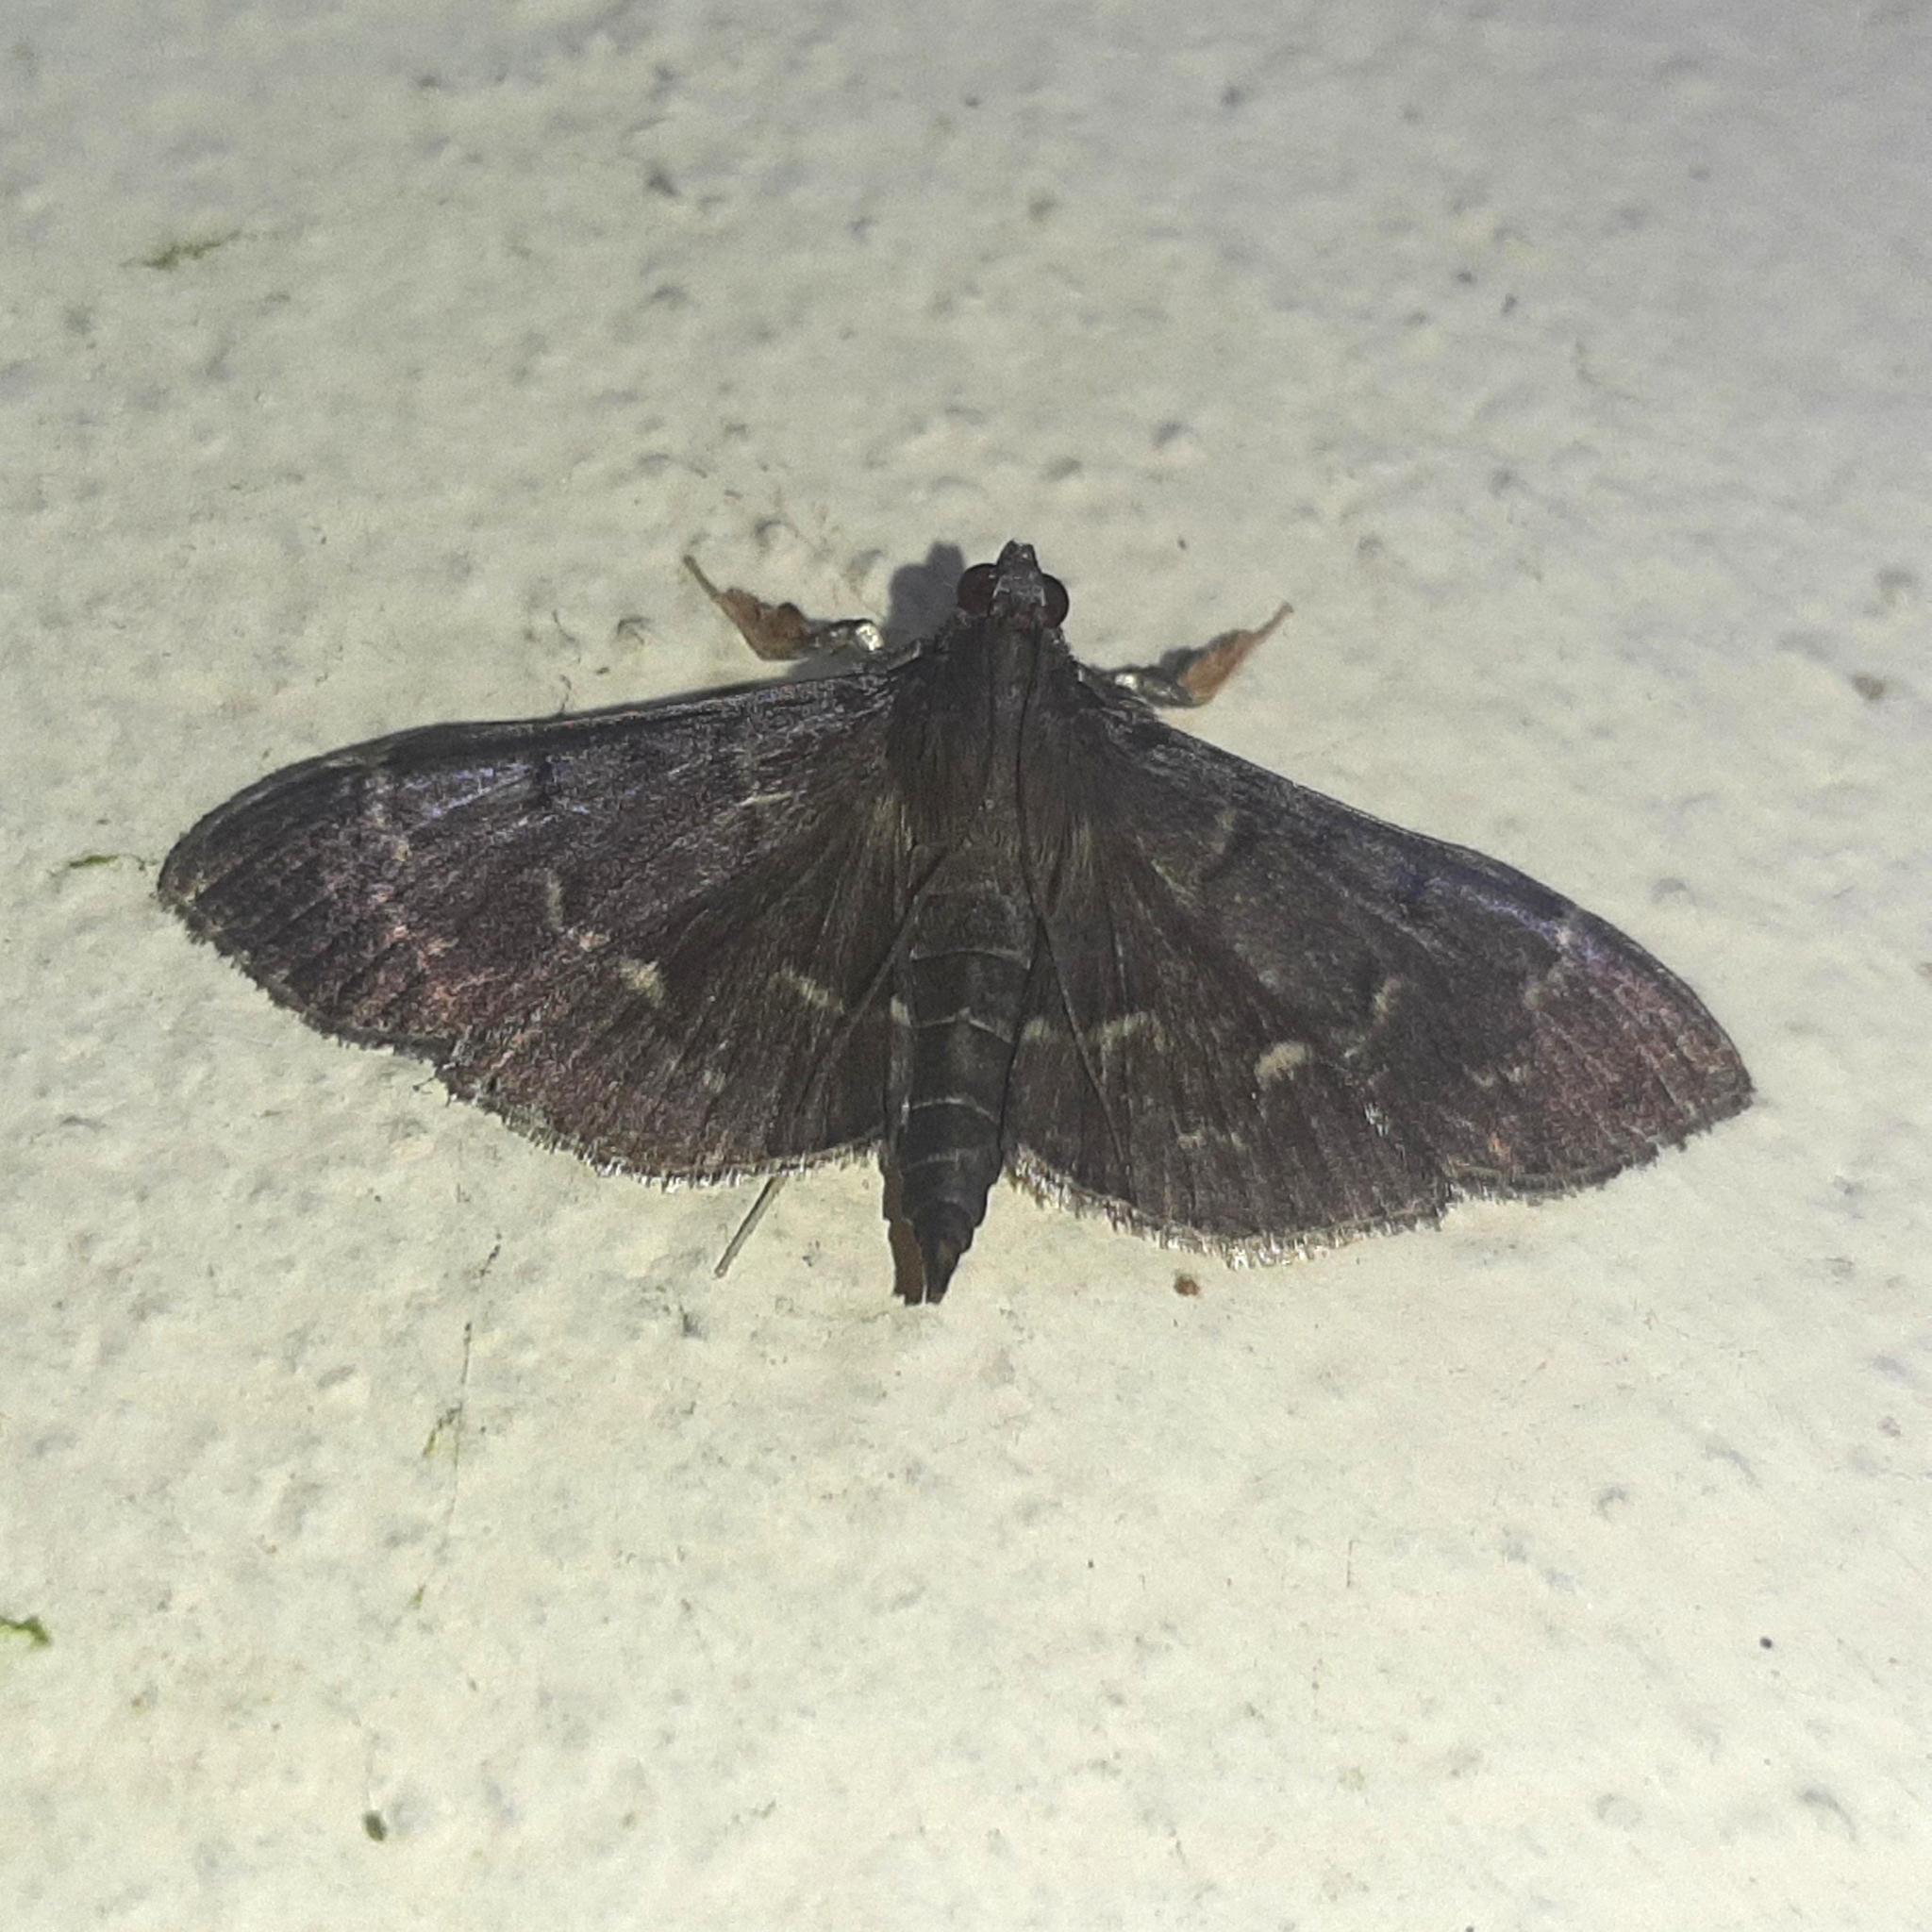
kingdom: Animalia
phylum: Arthropoda
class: Insecta
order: Lepidoptera
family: Crambidae
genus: Pilocrocis
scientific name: Pilocrocis ramentalis
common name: Scraped pilocrocis
